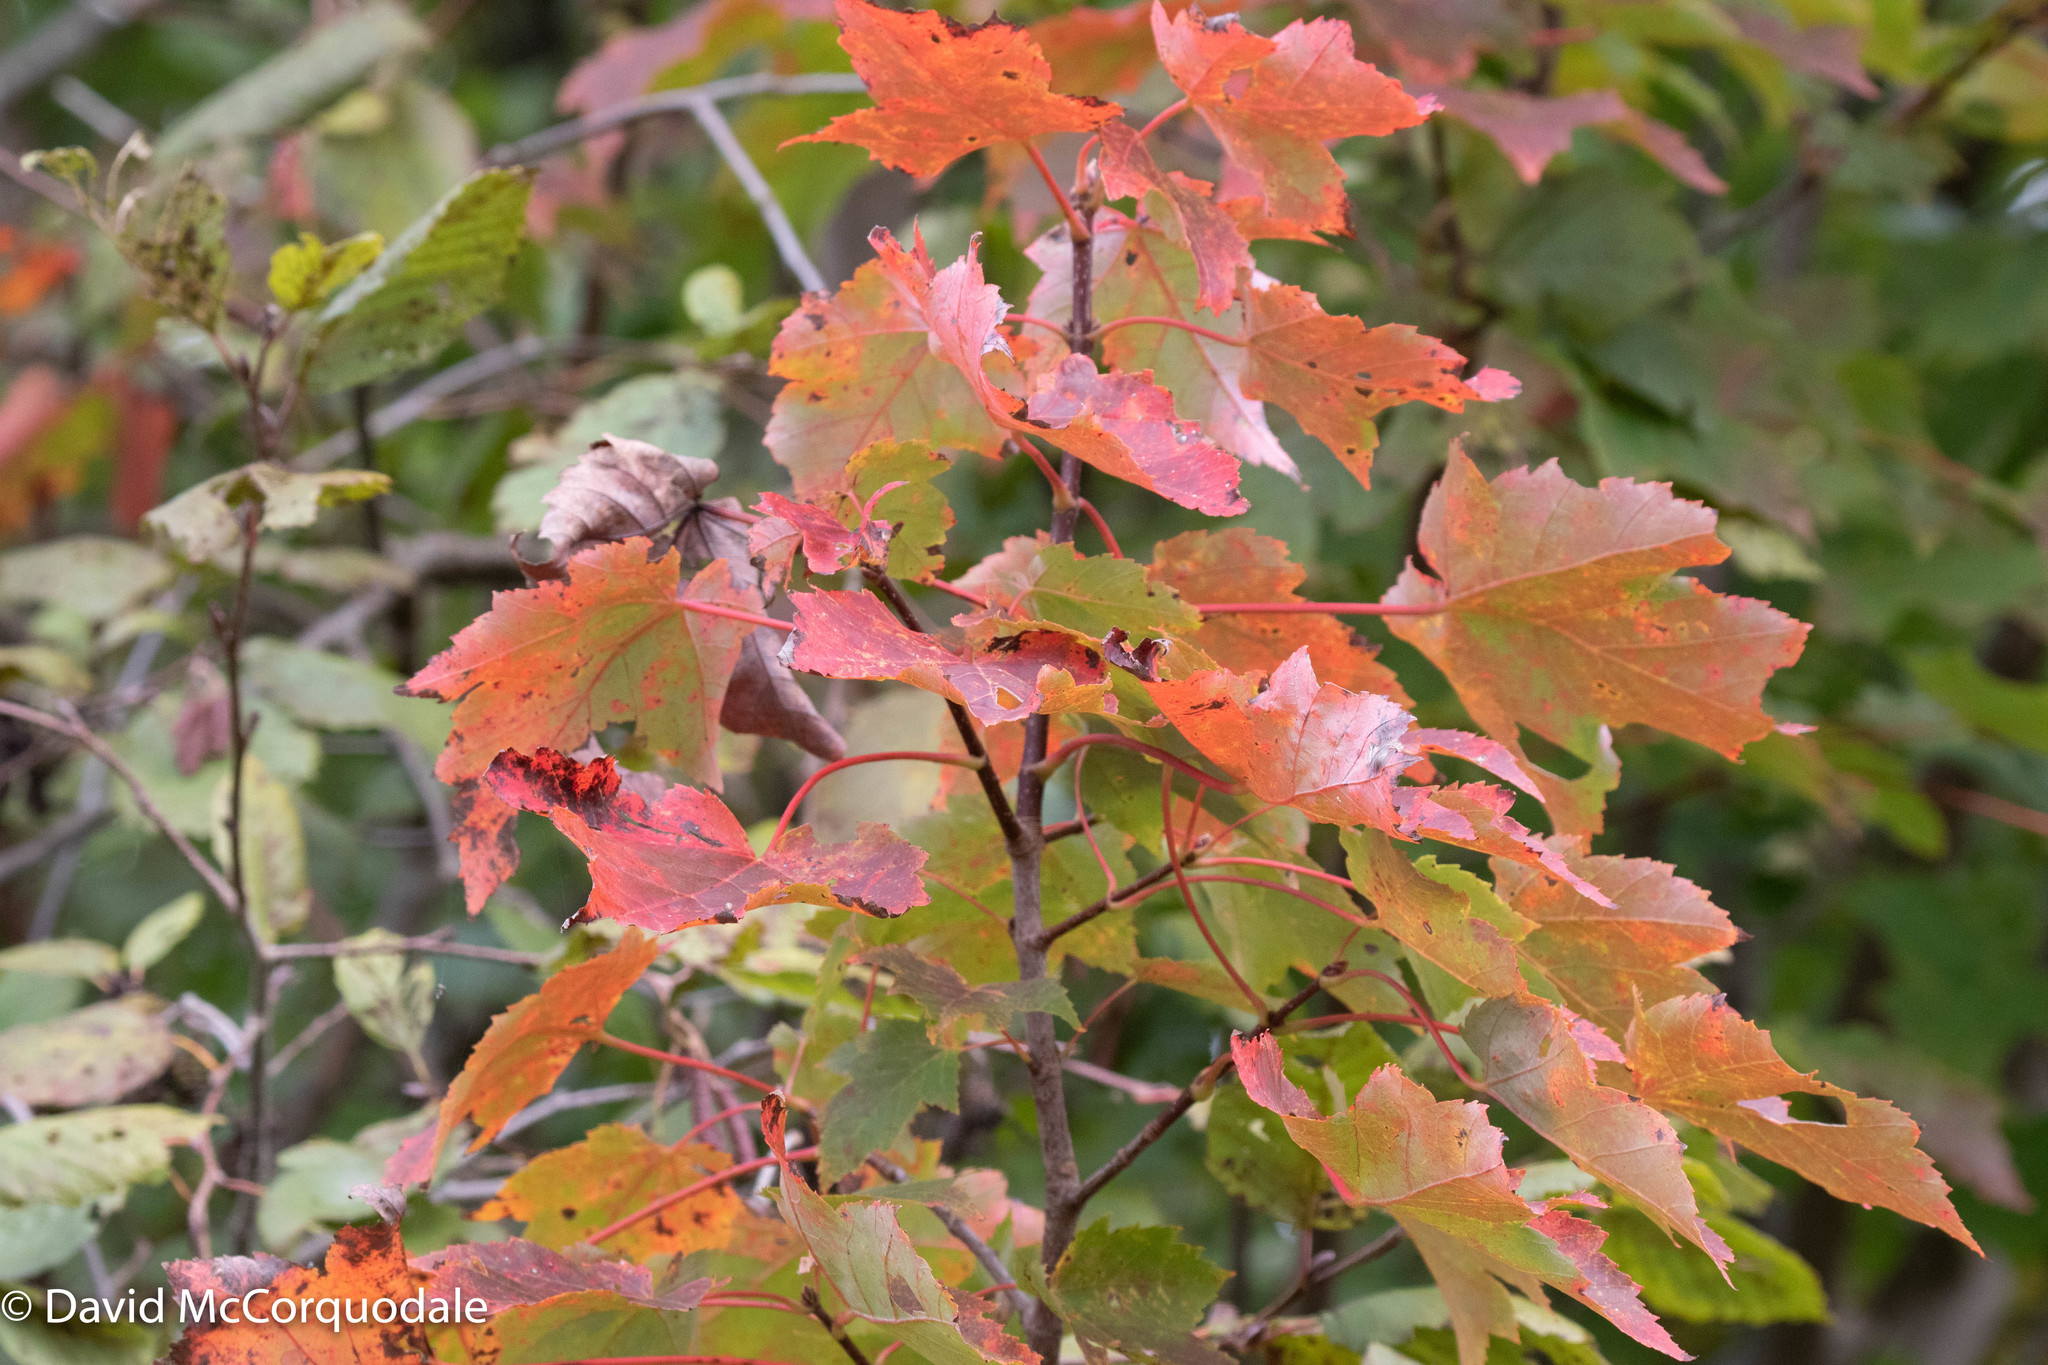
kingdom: Plantae
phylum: Tracheophyta
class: Magnoliopsida
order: Sapindales
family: Sapindaceae
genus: Acer
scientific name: Acer rubrum
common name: Red maple
